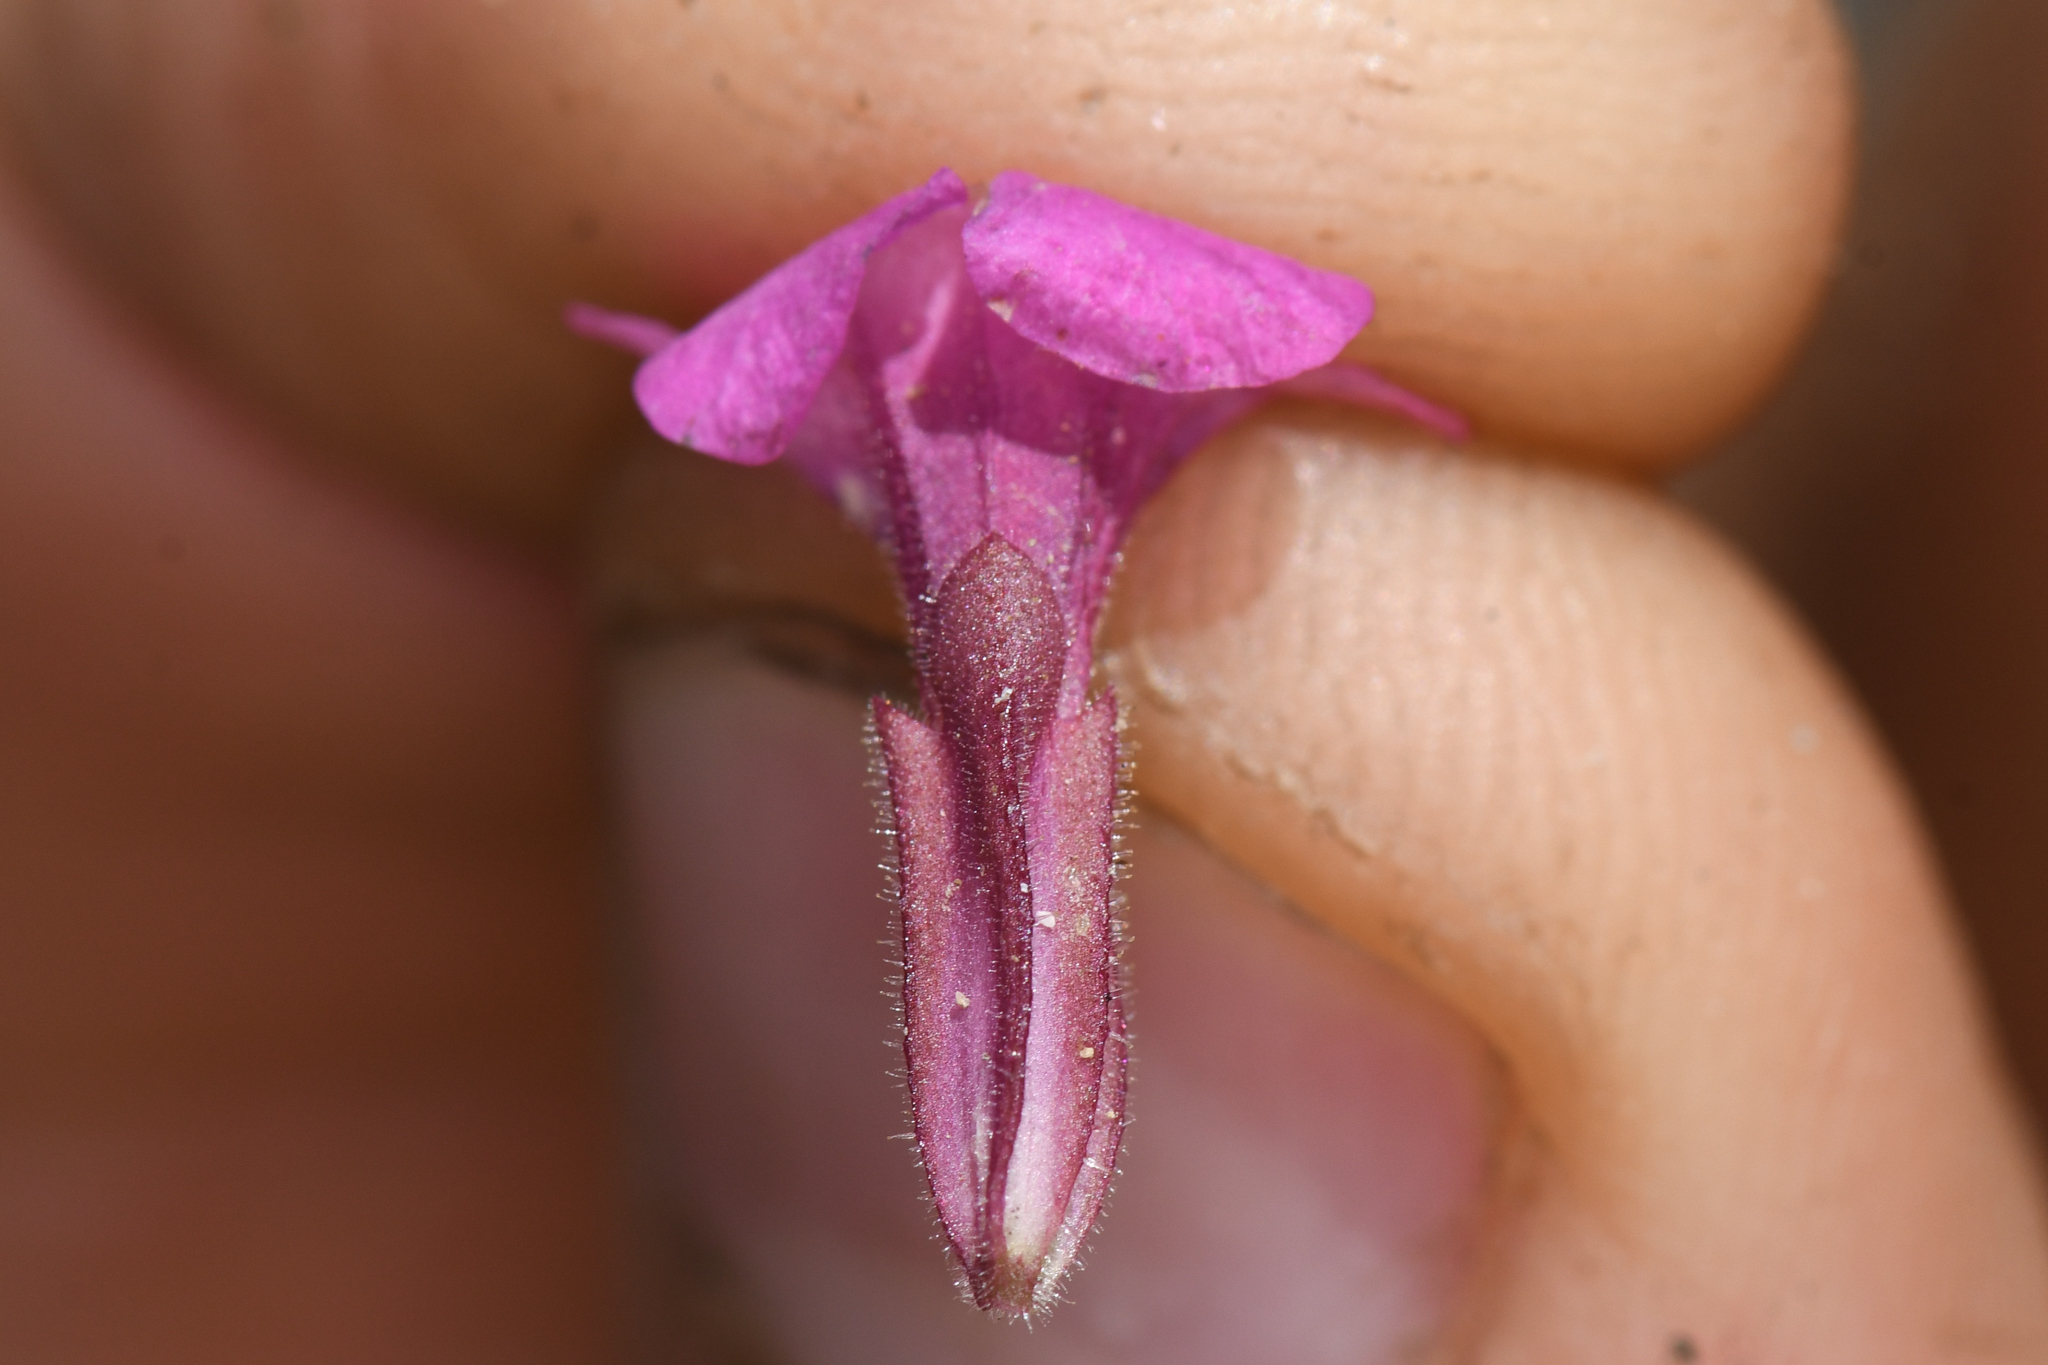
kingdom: Plantae
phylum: Tracheophyta
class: Magnoliopsida
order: Lamiales
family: Phrymaceae
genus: Diplacus
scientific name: Diplacus parryi
